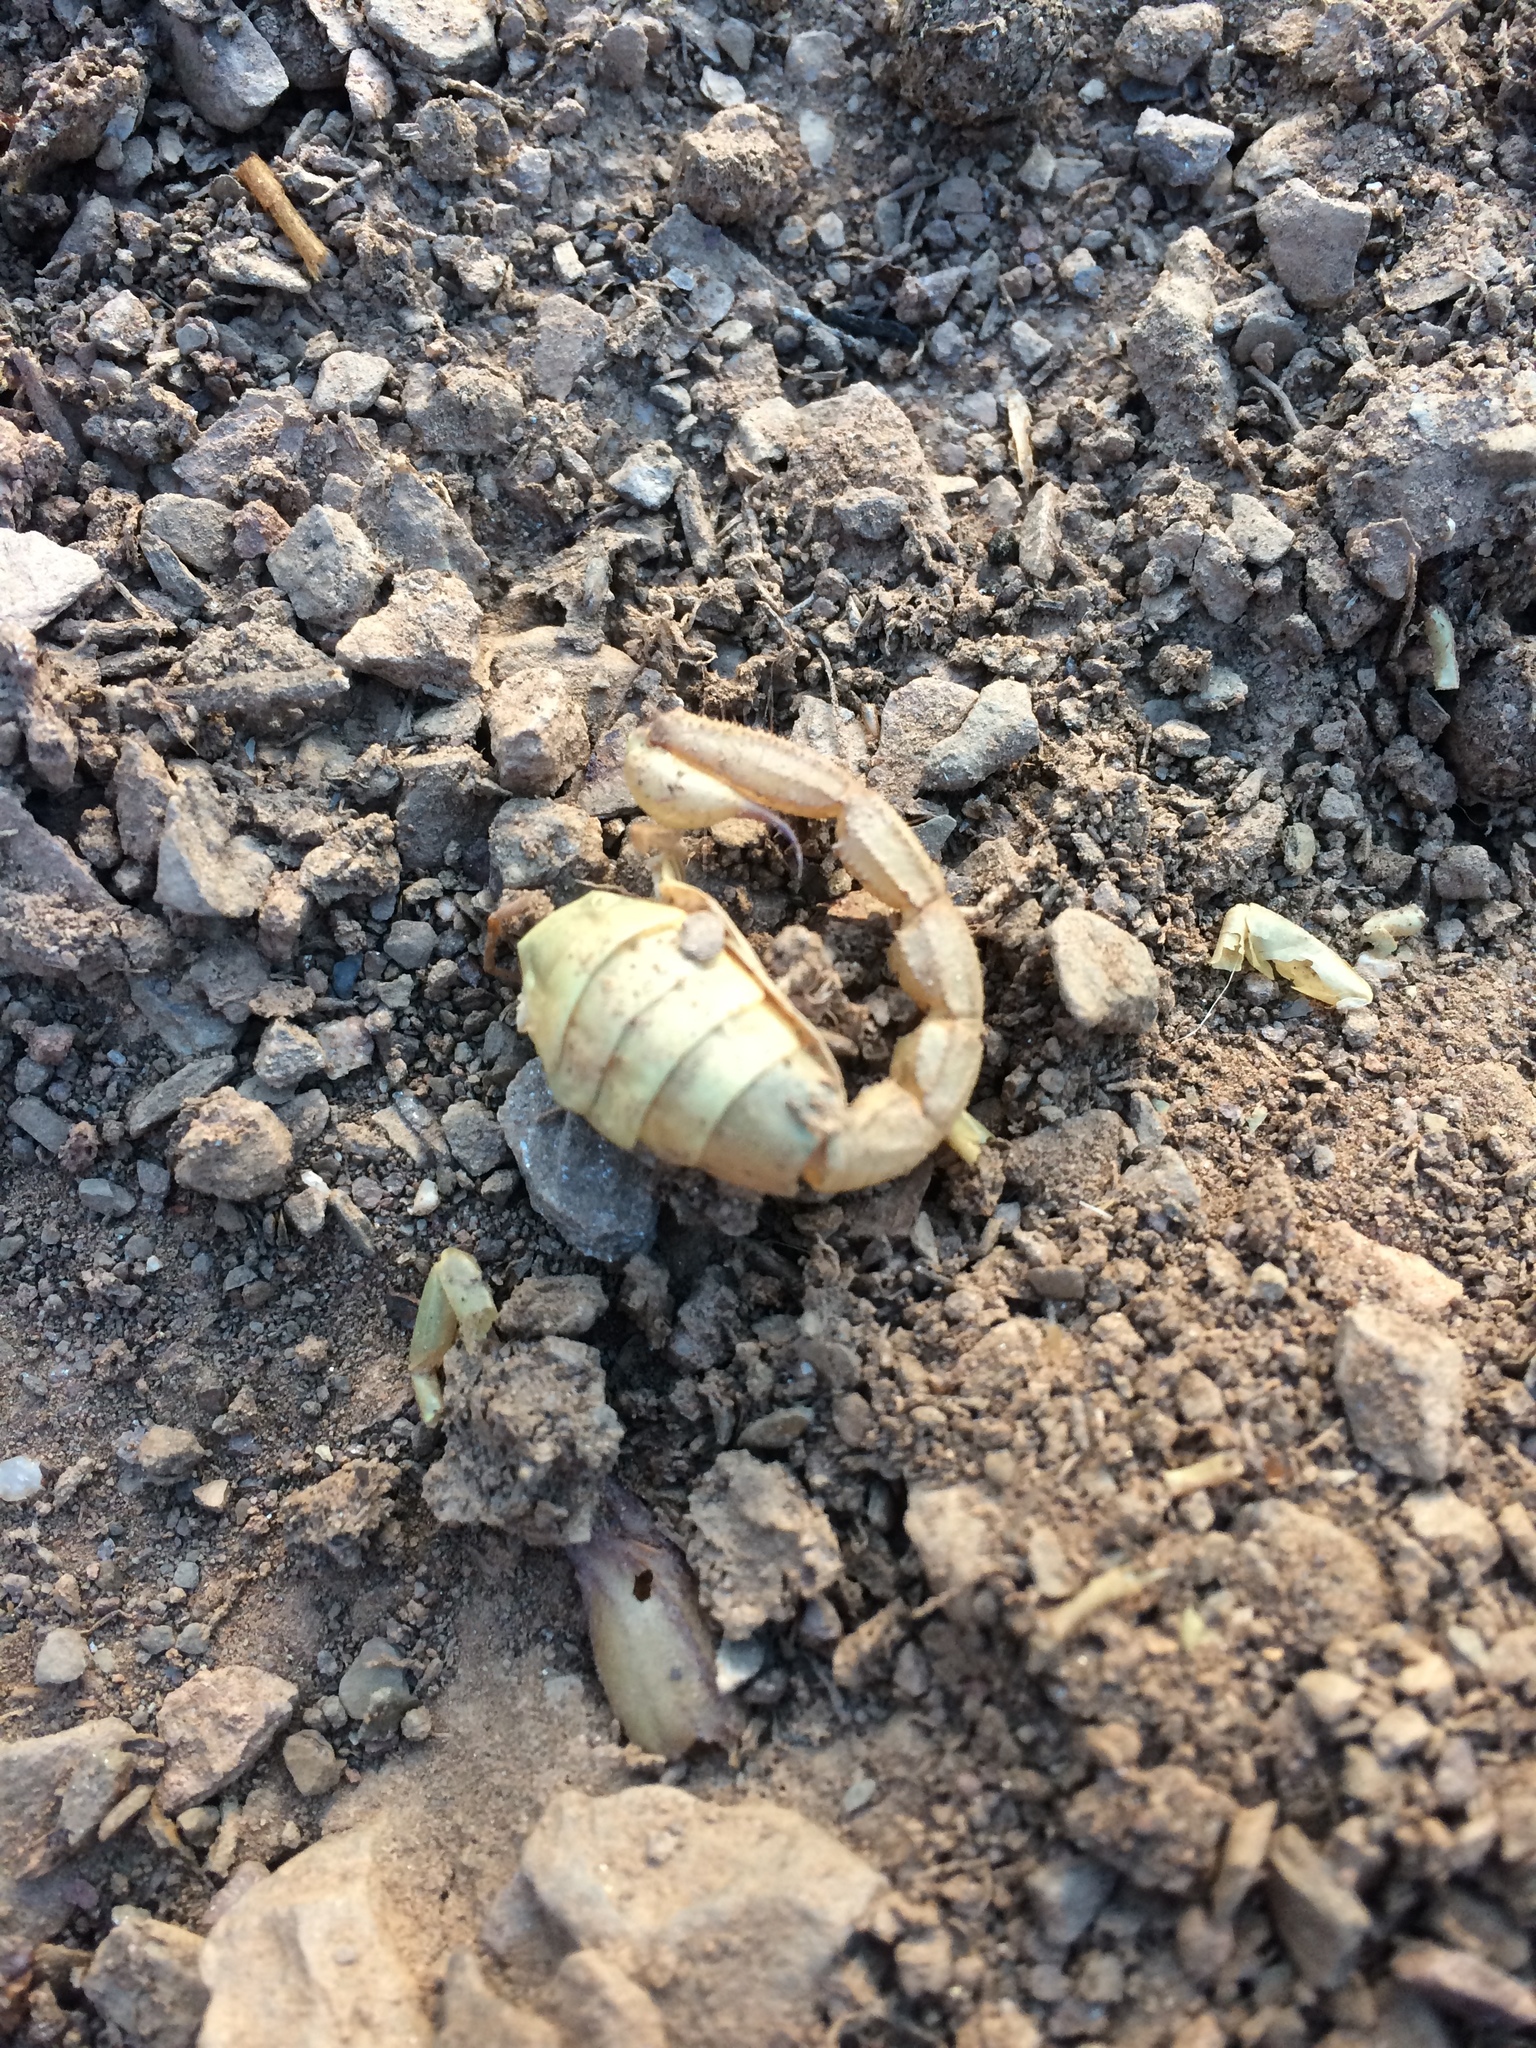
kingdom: Animalia
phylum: Arthropoda
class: Arachnida
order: Scorpiones
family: Scorpionidae
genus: Opistophthalmus
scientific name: Opistophthalmus karrooensis
